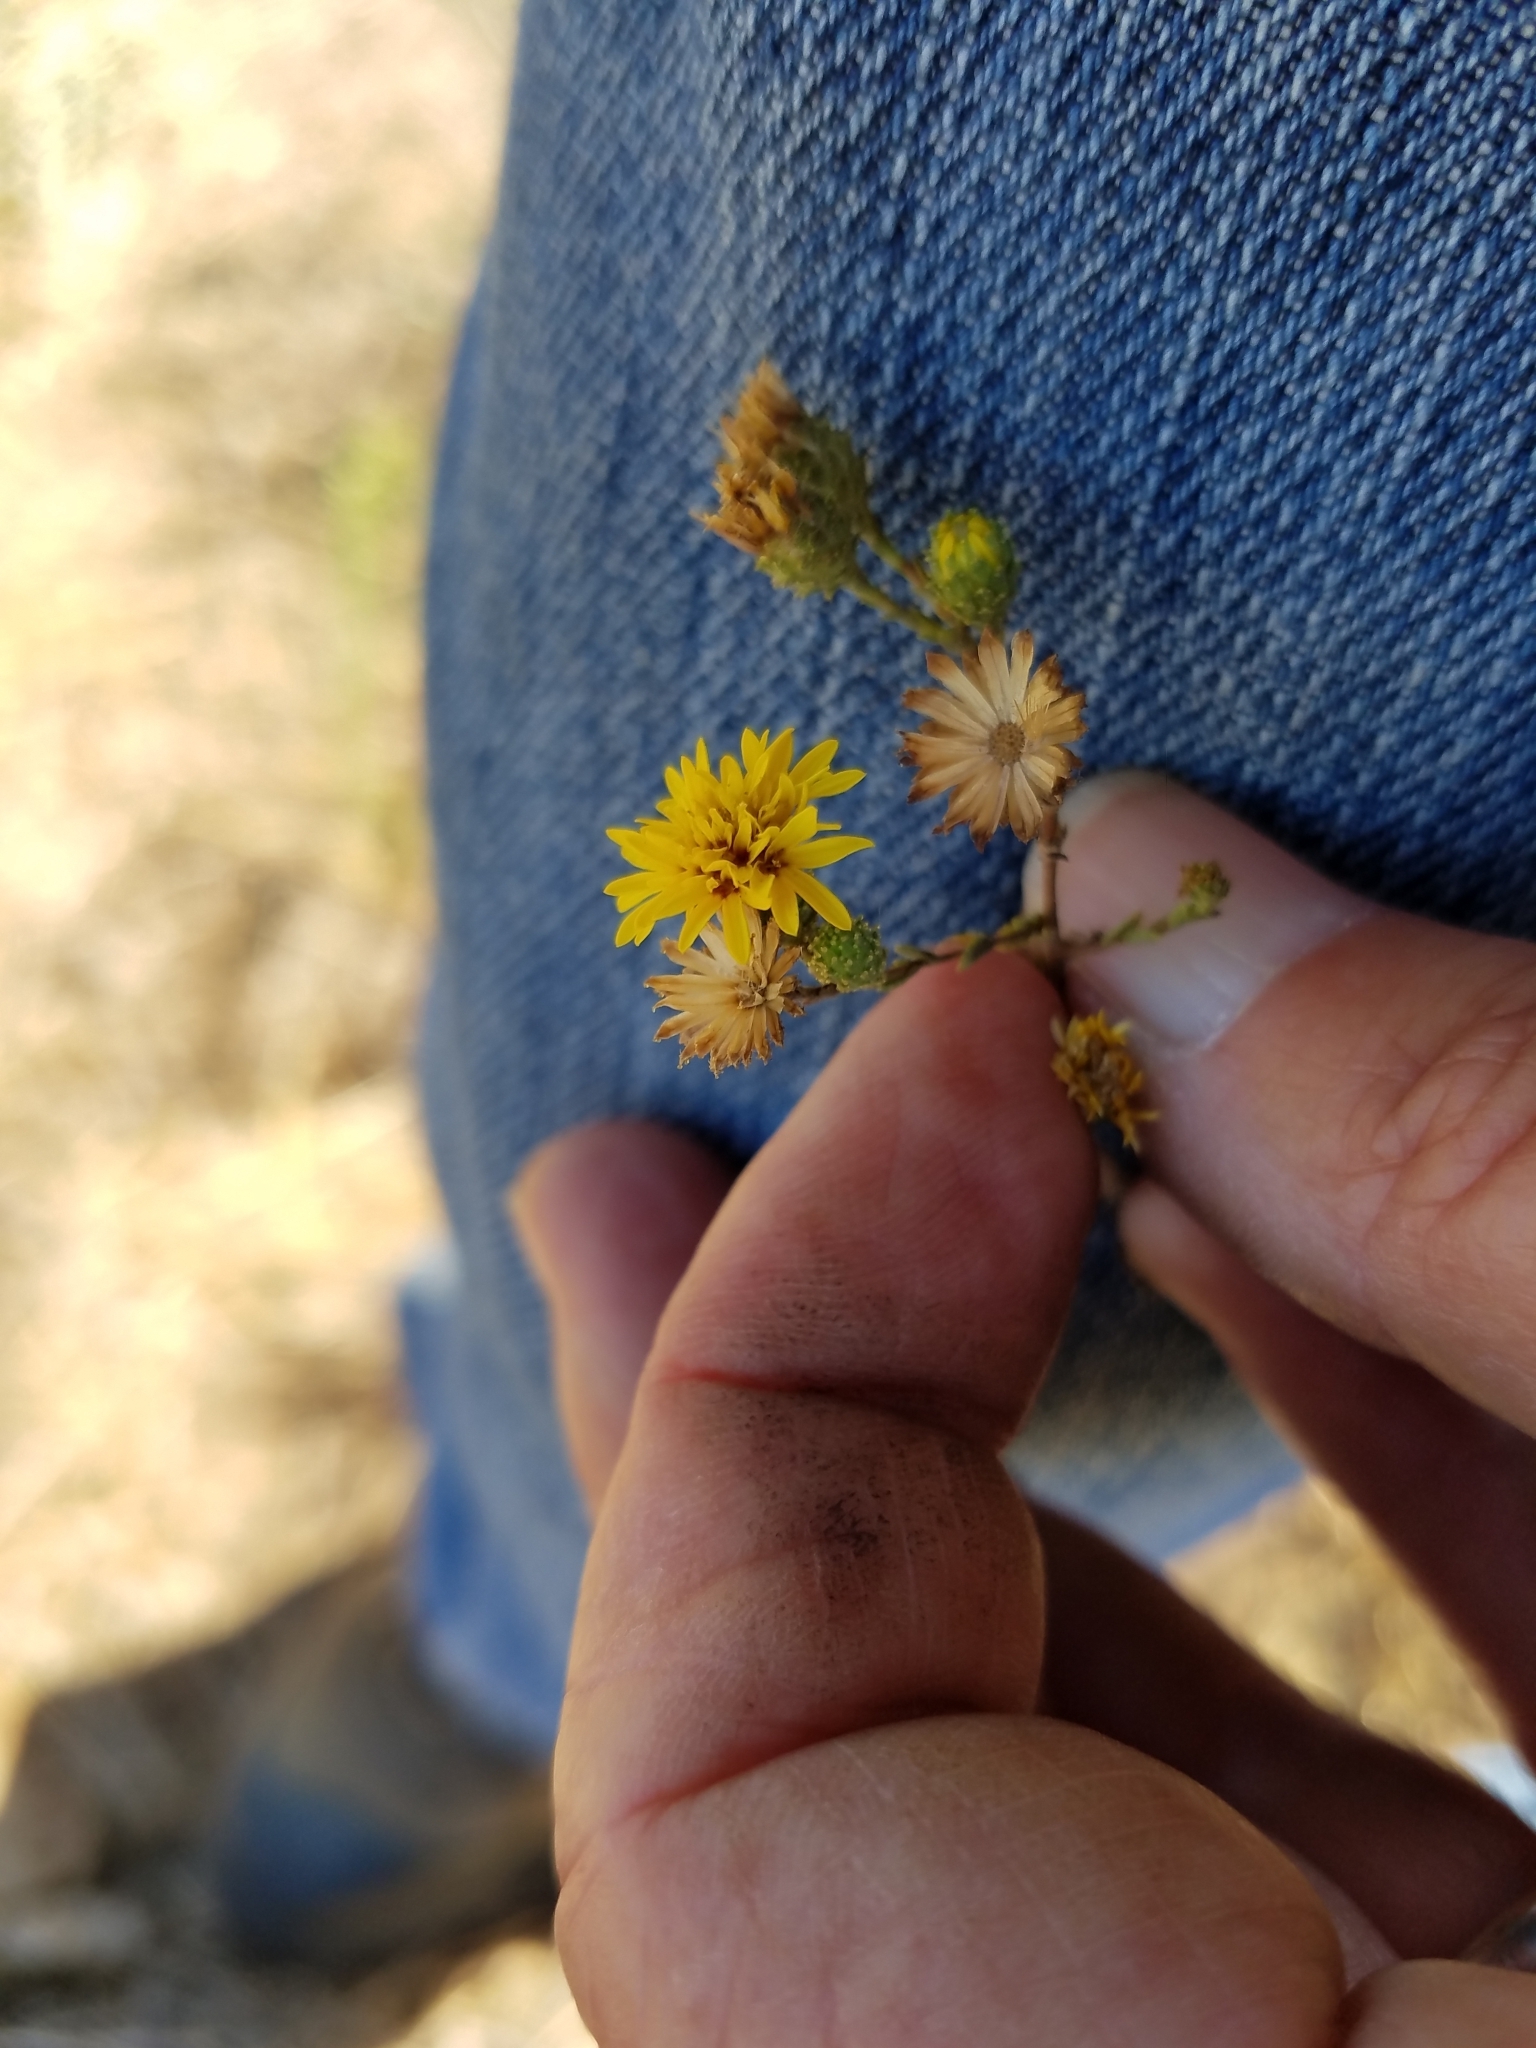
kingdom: Plantae
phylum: Tracheophyta
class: Magnoliopsida
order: Asterales
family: Asteraceae
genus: Lessingia
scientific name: Lessingia pectinata
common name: Valley lessingia
